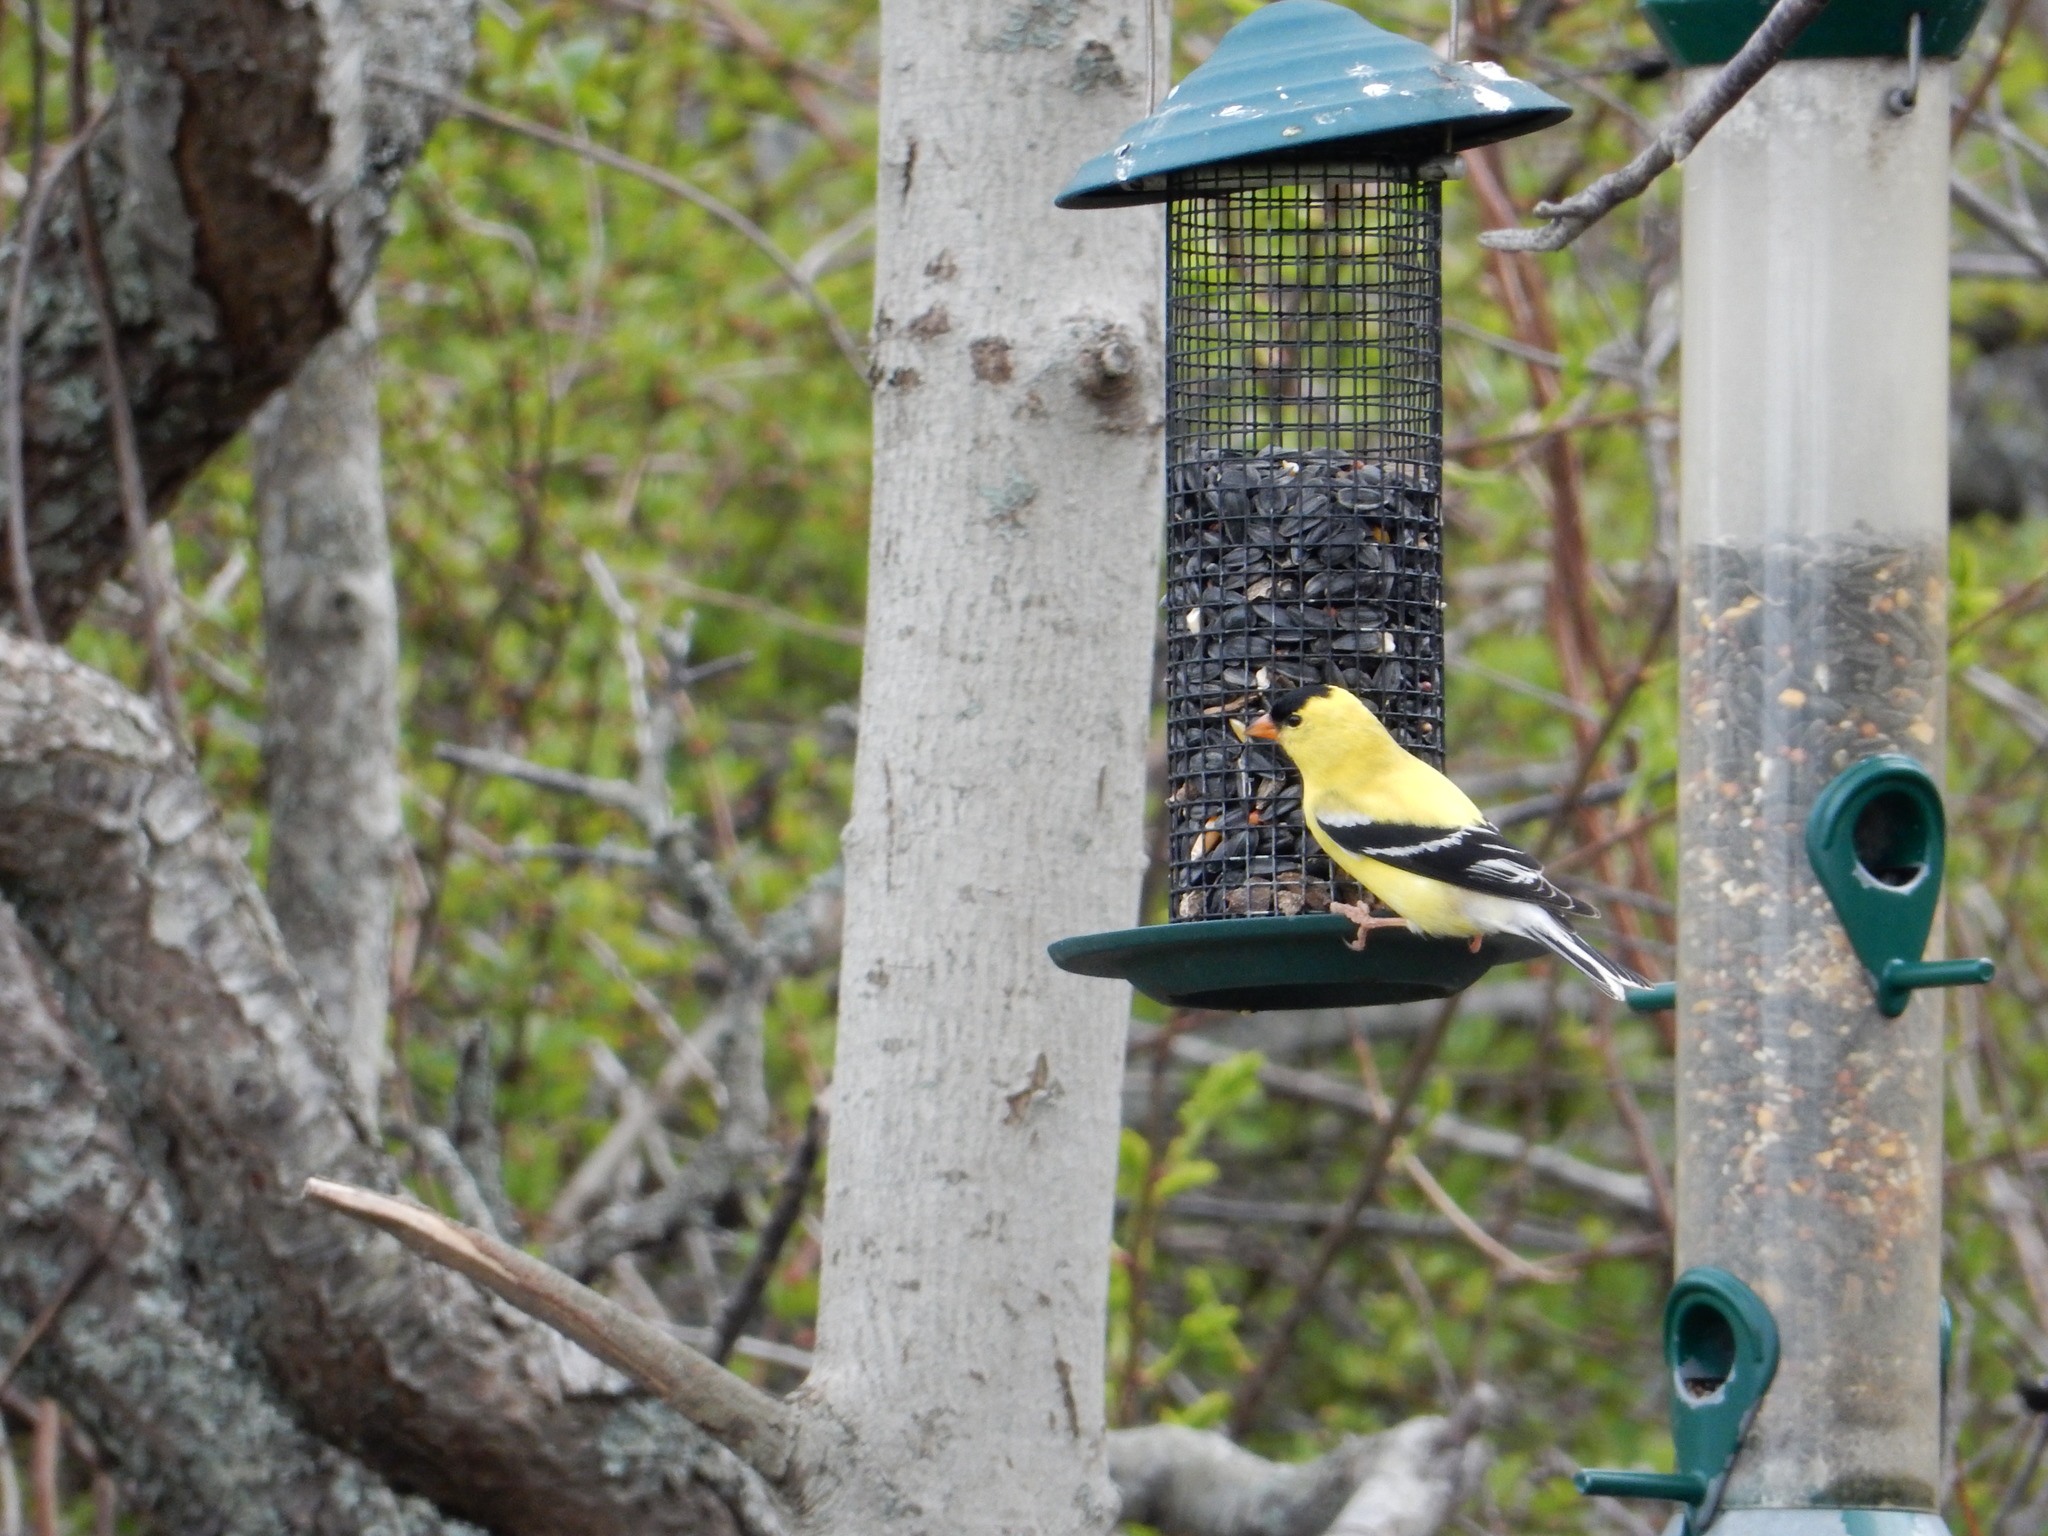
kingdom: Animalia
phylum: Chordata
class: Aves
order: Passeriformes
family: Fringillidae
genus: Spinus
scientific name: Spinus tristis
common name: American goldfinch
